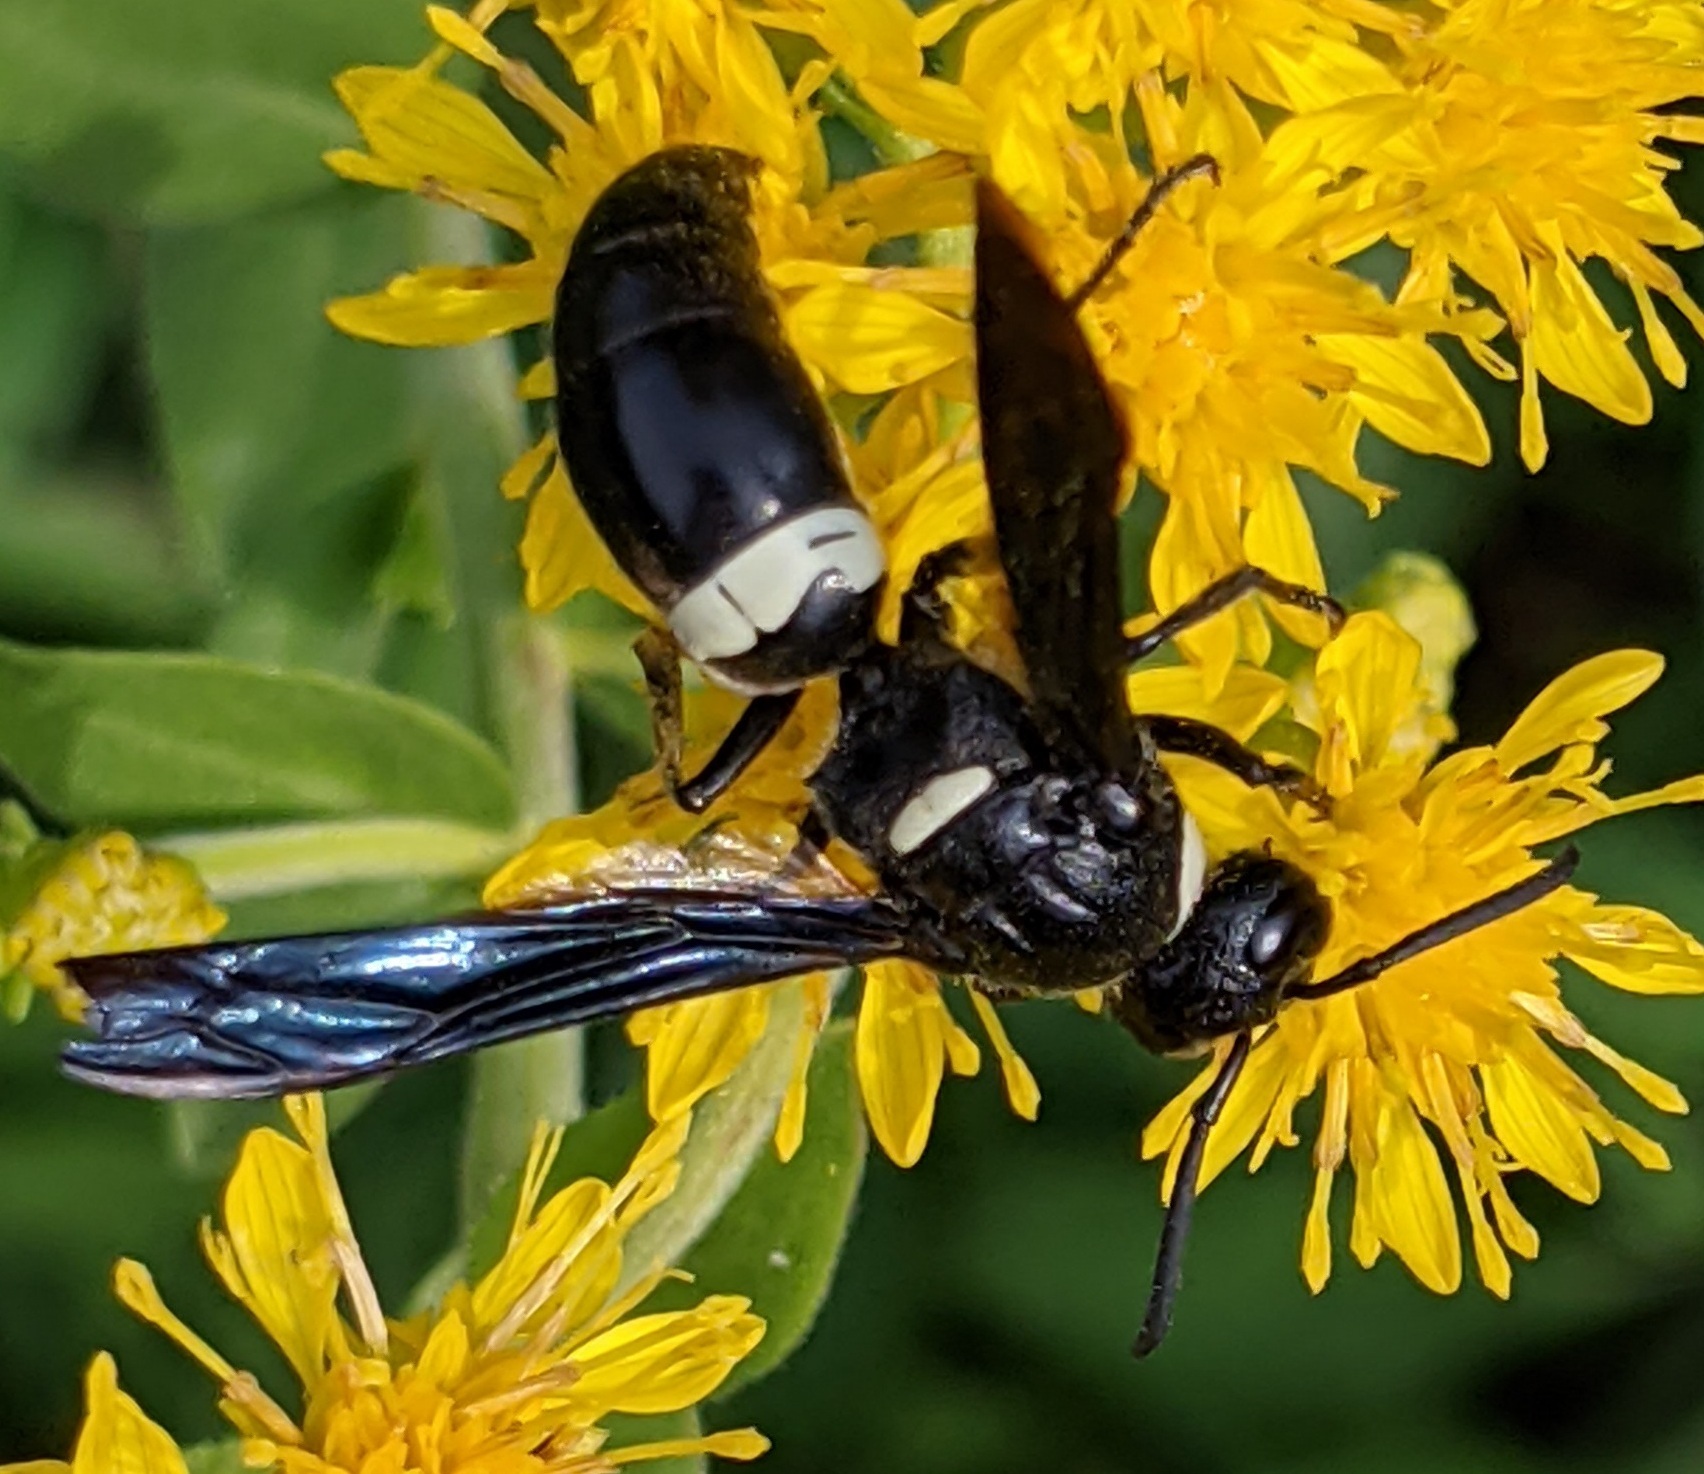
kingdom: Animalia
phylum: Arthropoda
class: Insecta
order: Hymenoptera
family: Eumenidae
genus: Monobia
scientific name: Monobia quadridens
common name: Four-toothed mason wasp
